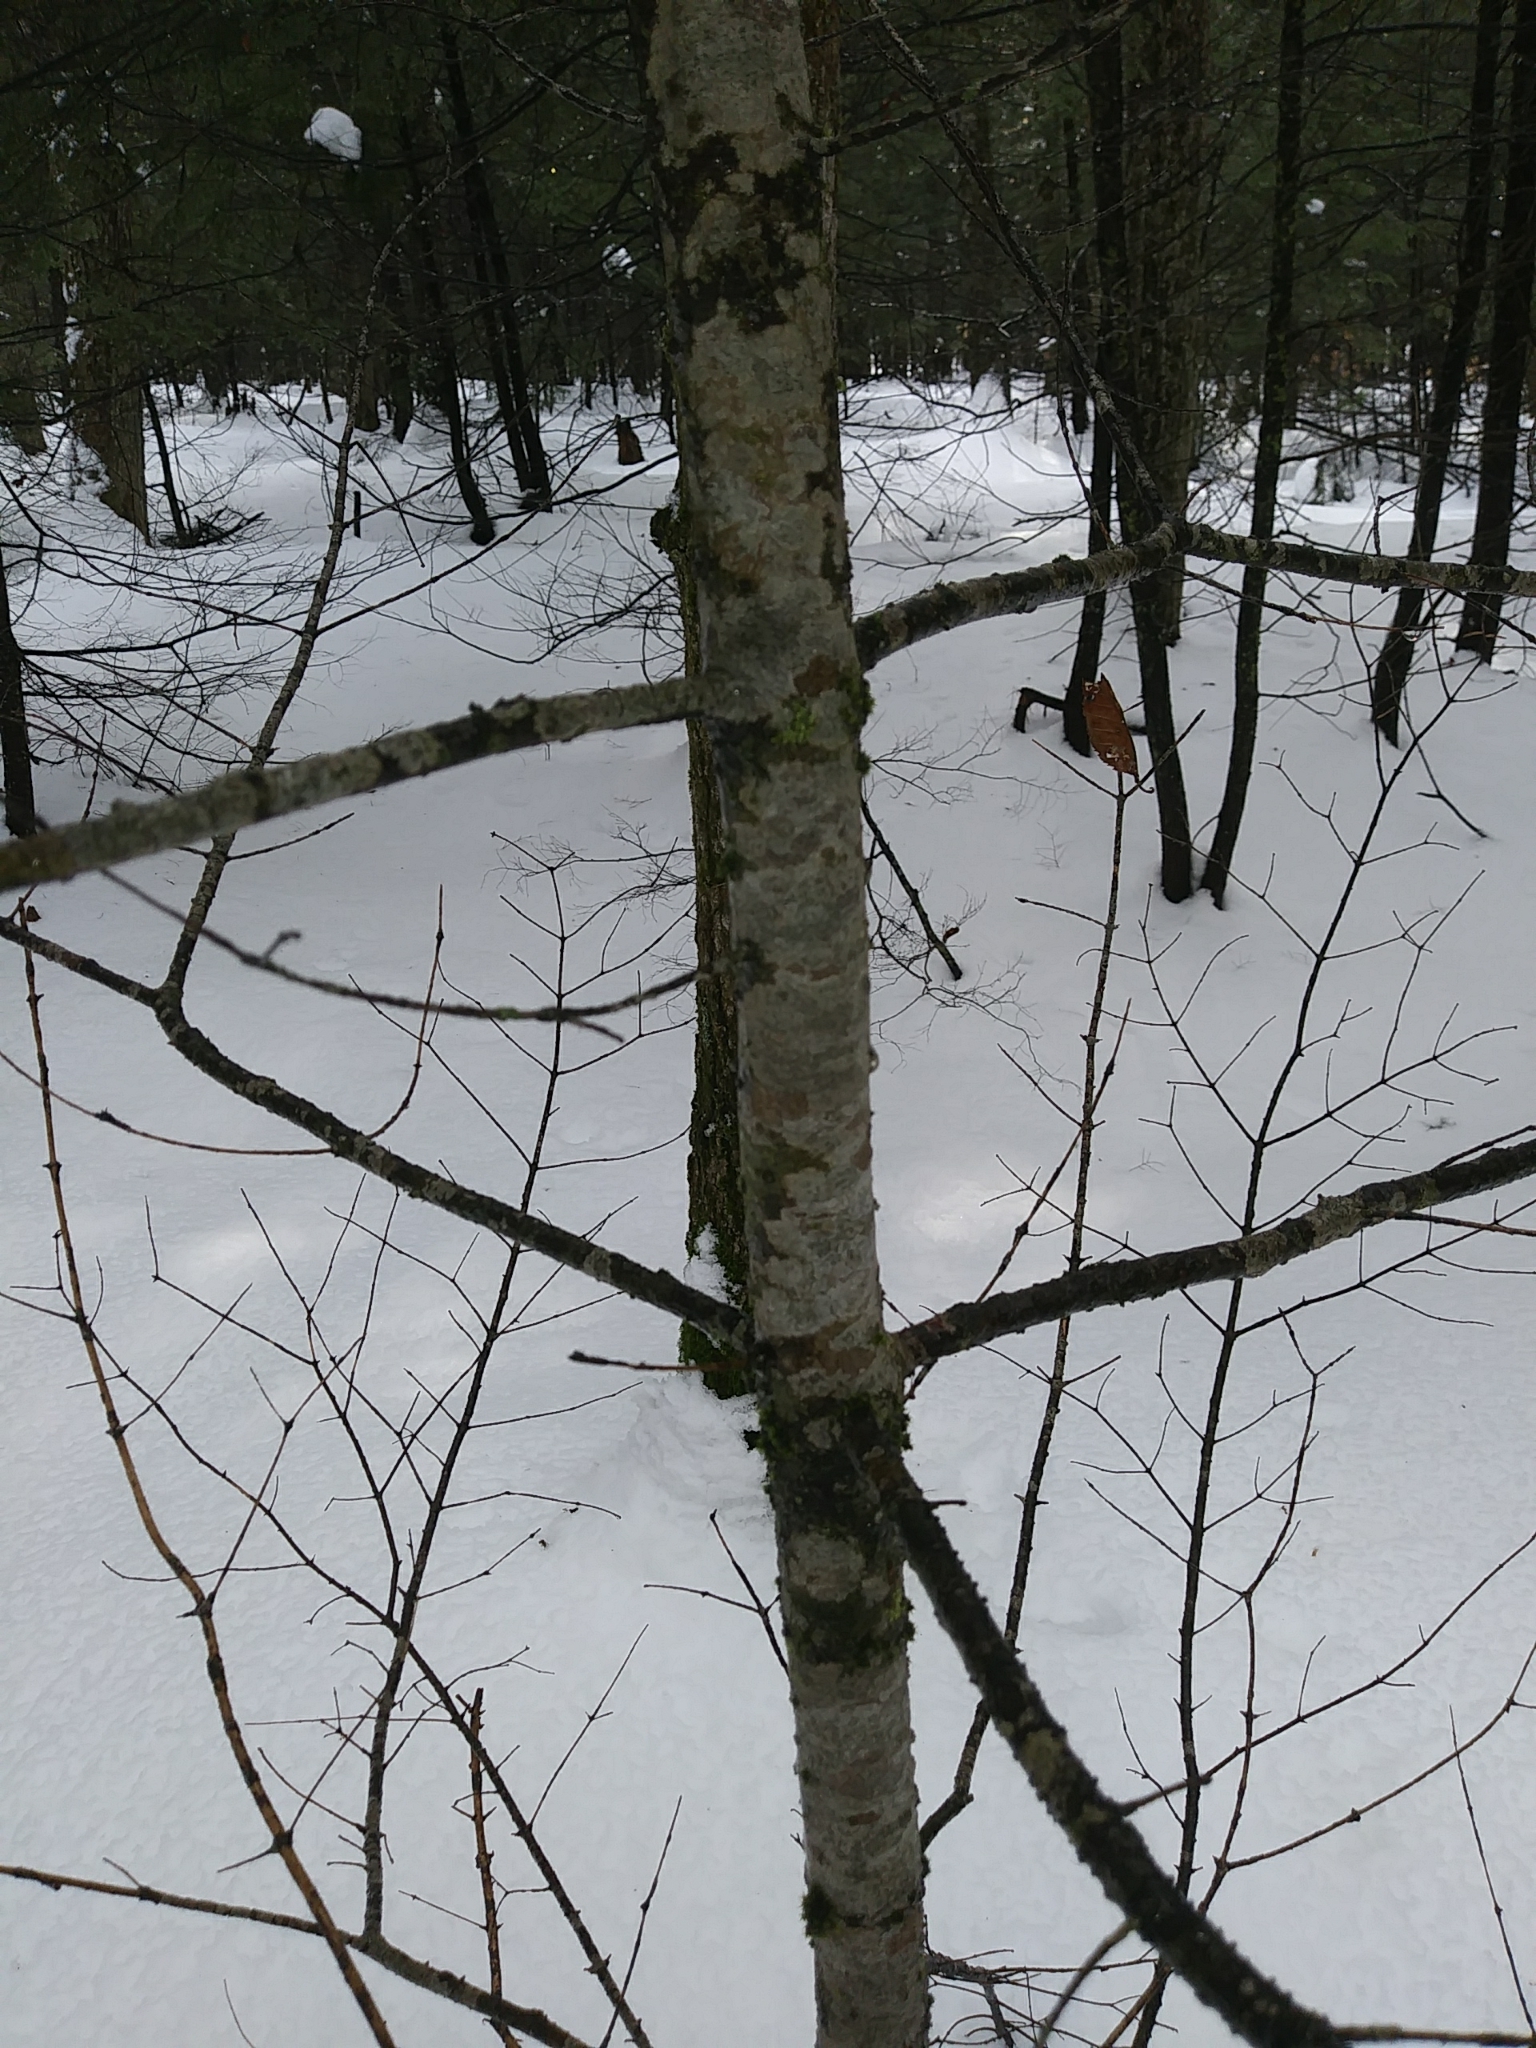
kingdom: Plantae
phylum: Tracheophyta
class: Pinopsida
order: Pinales
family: Pinaceae
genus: Abies
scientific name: Abies balsamea
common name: Balsam fir
